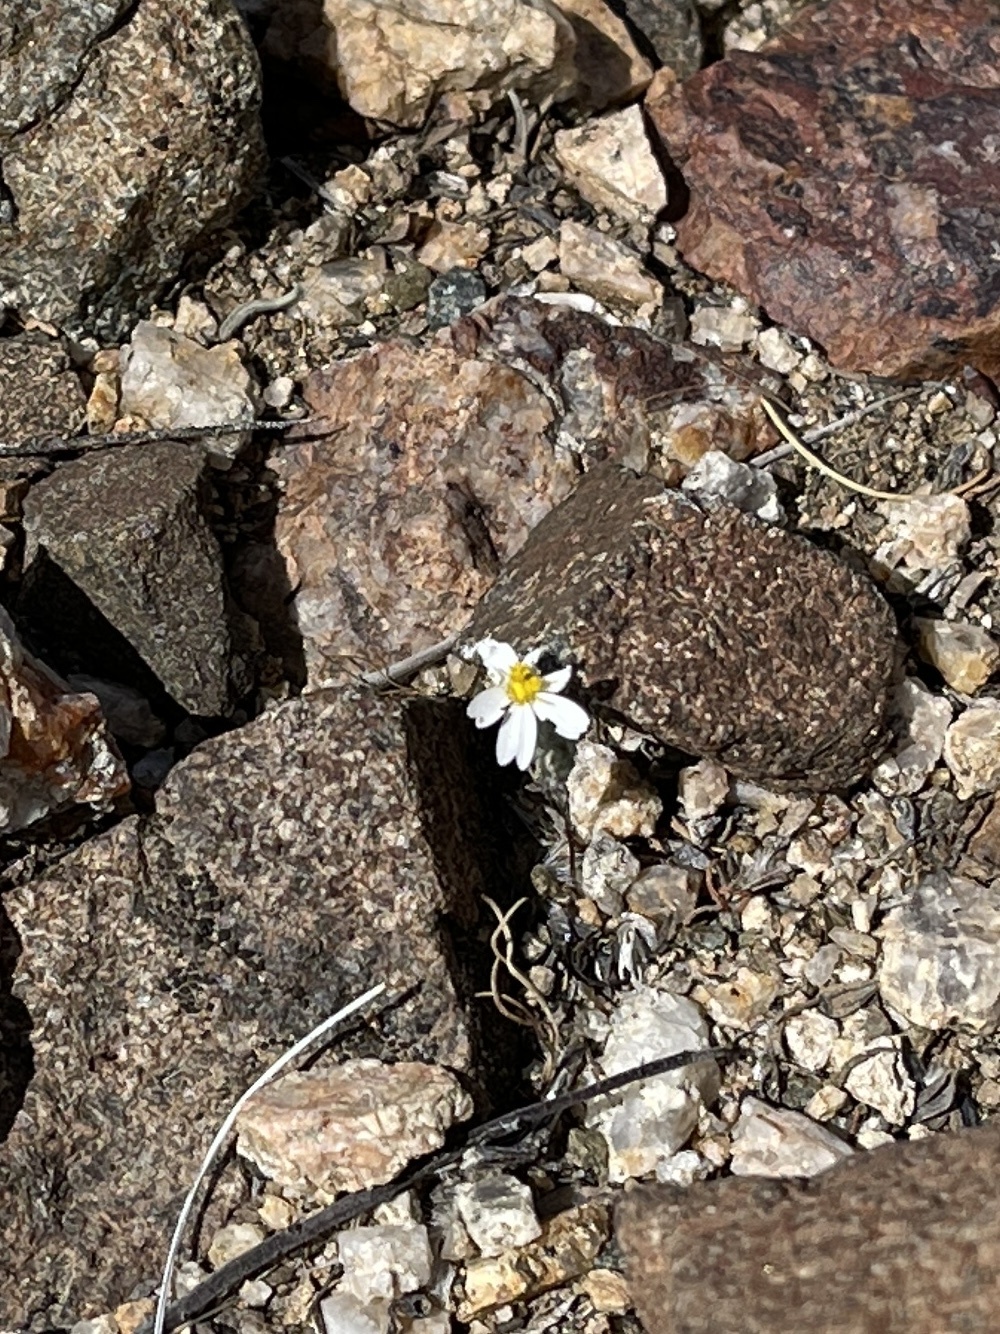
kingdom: Plantae
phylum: Tracheophyta
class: Magnoliopsida
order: Asterales
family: Asteraceae
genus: Eriophyllum
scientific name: Eriophyllum lanosum
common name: White easter-bonnets
